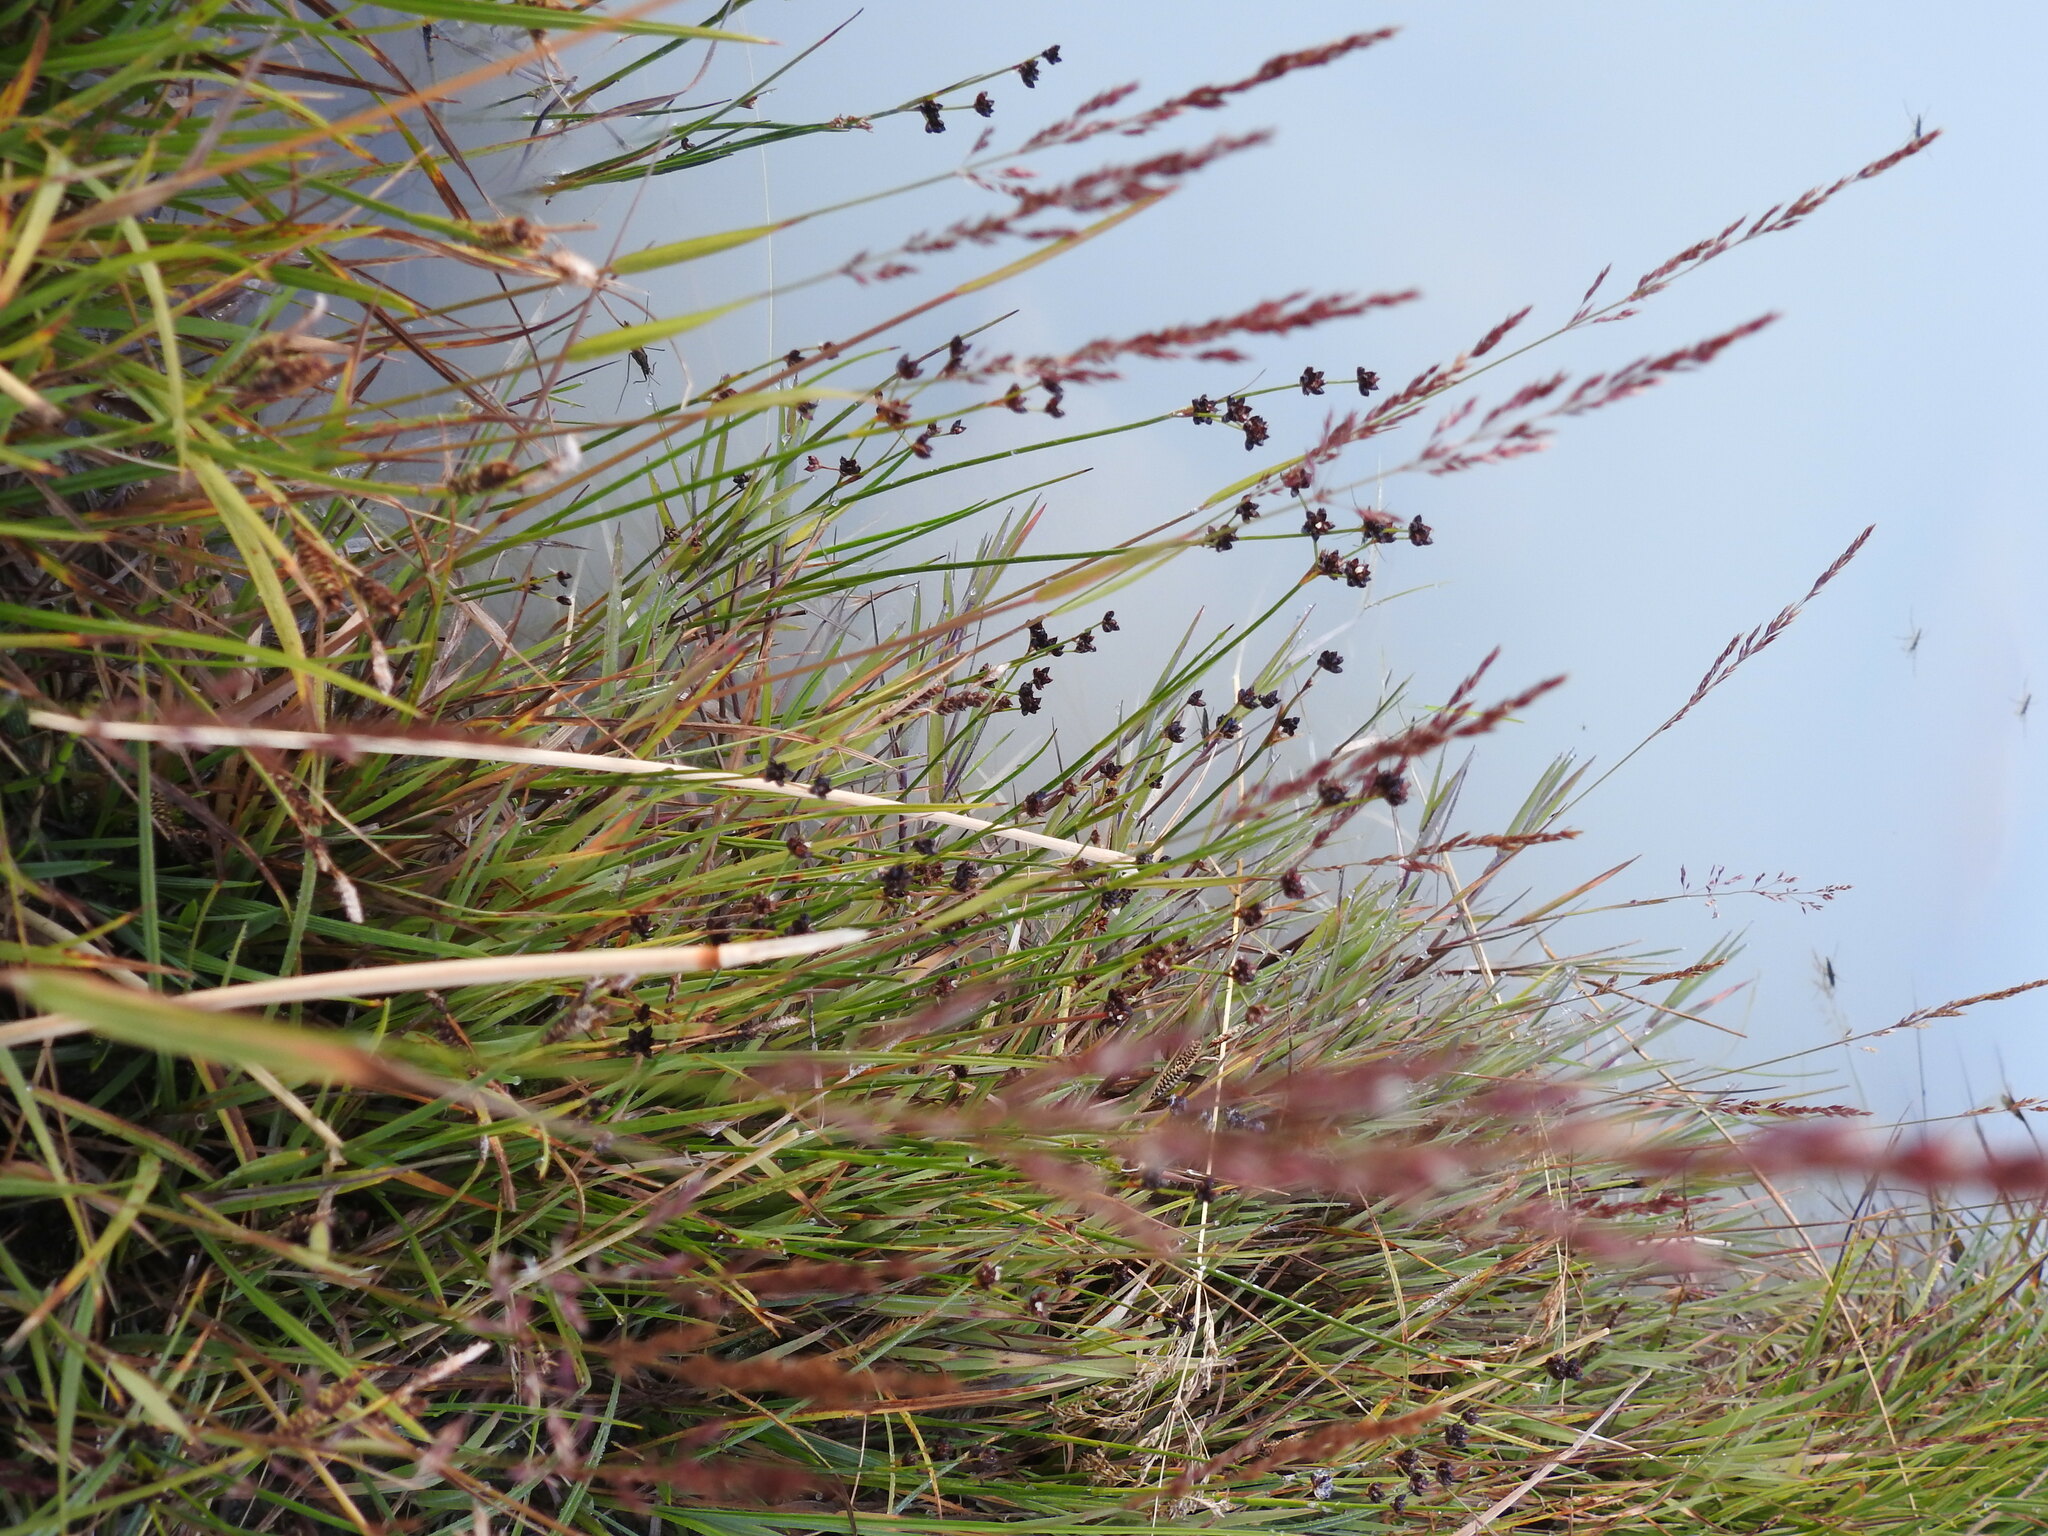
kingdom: Plantae
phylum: Tracheophyta
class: Liliopsida
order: Poales
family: Juncaceae
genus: Juncus
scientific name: Juncus alpinoarticulatus
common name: Alpine rush
